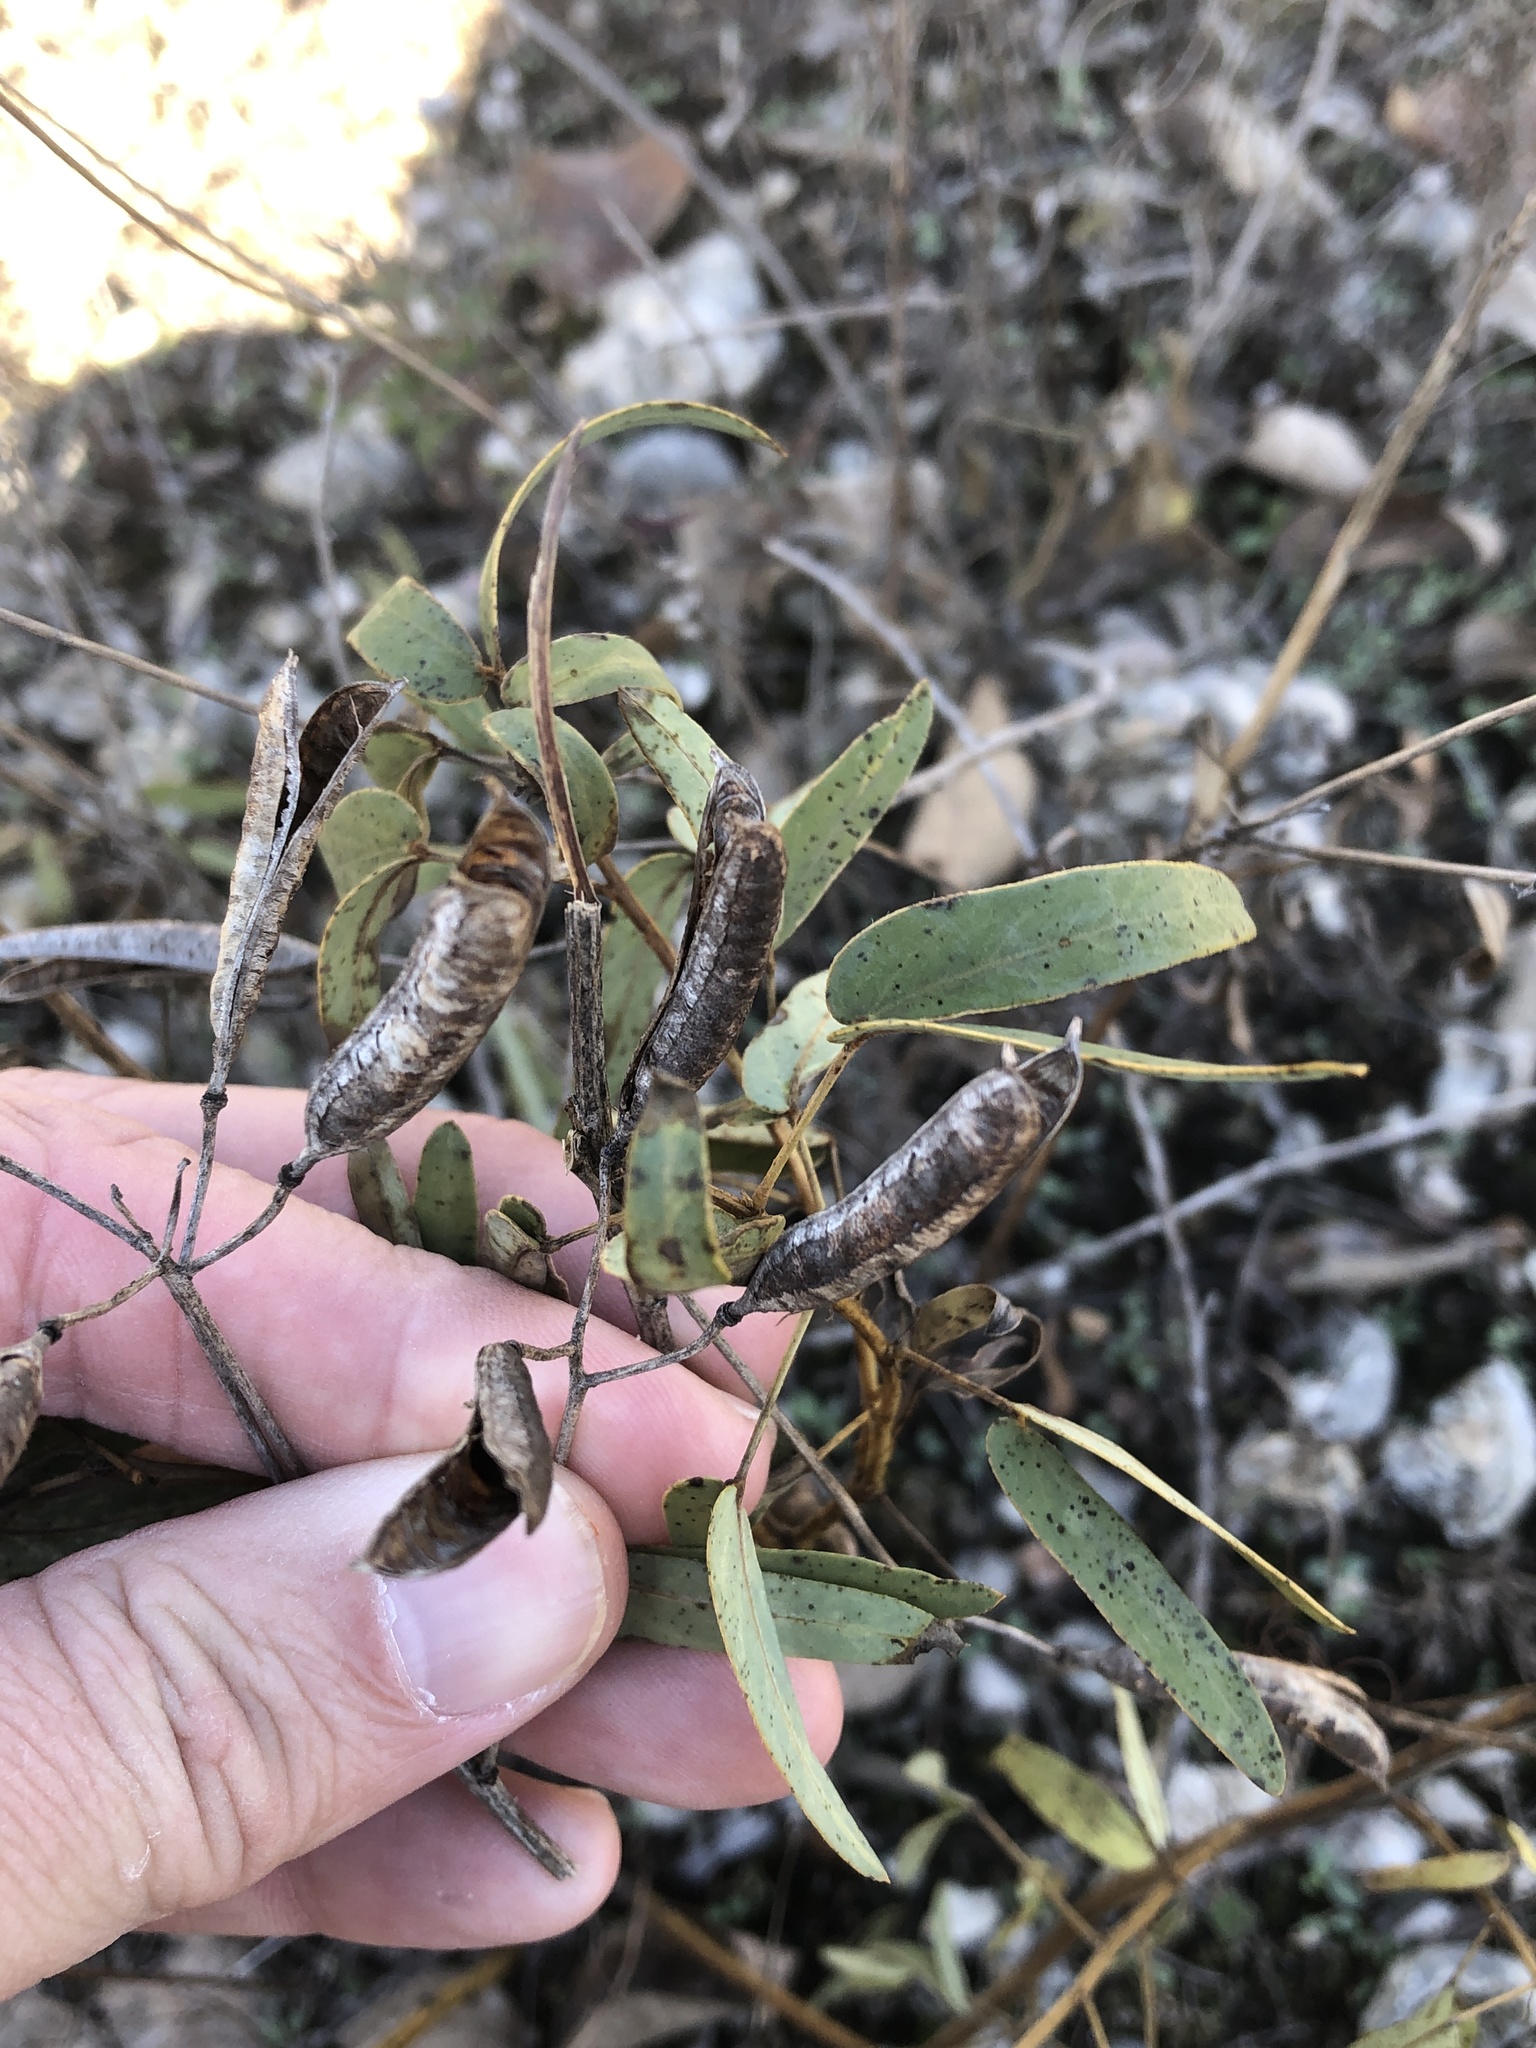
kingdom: Plantae
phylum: Tracheophyta
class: Magnoliopsida
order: Fabales
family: Fabaceae
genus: Senna
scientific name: Senna roemeriana
